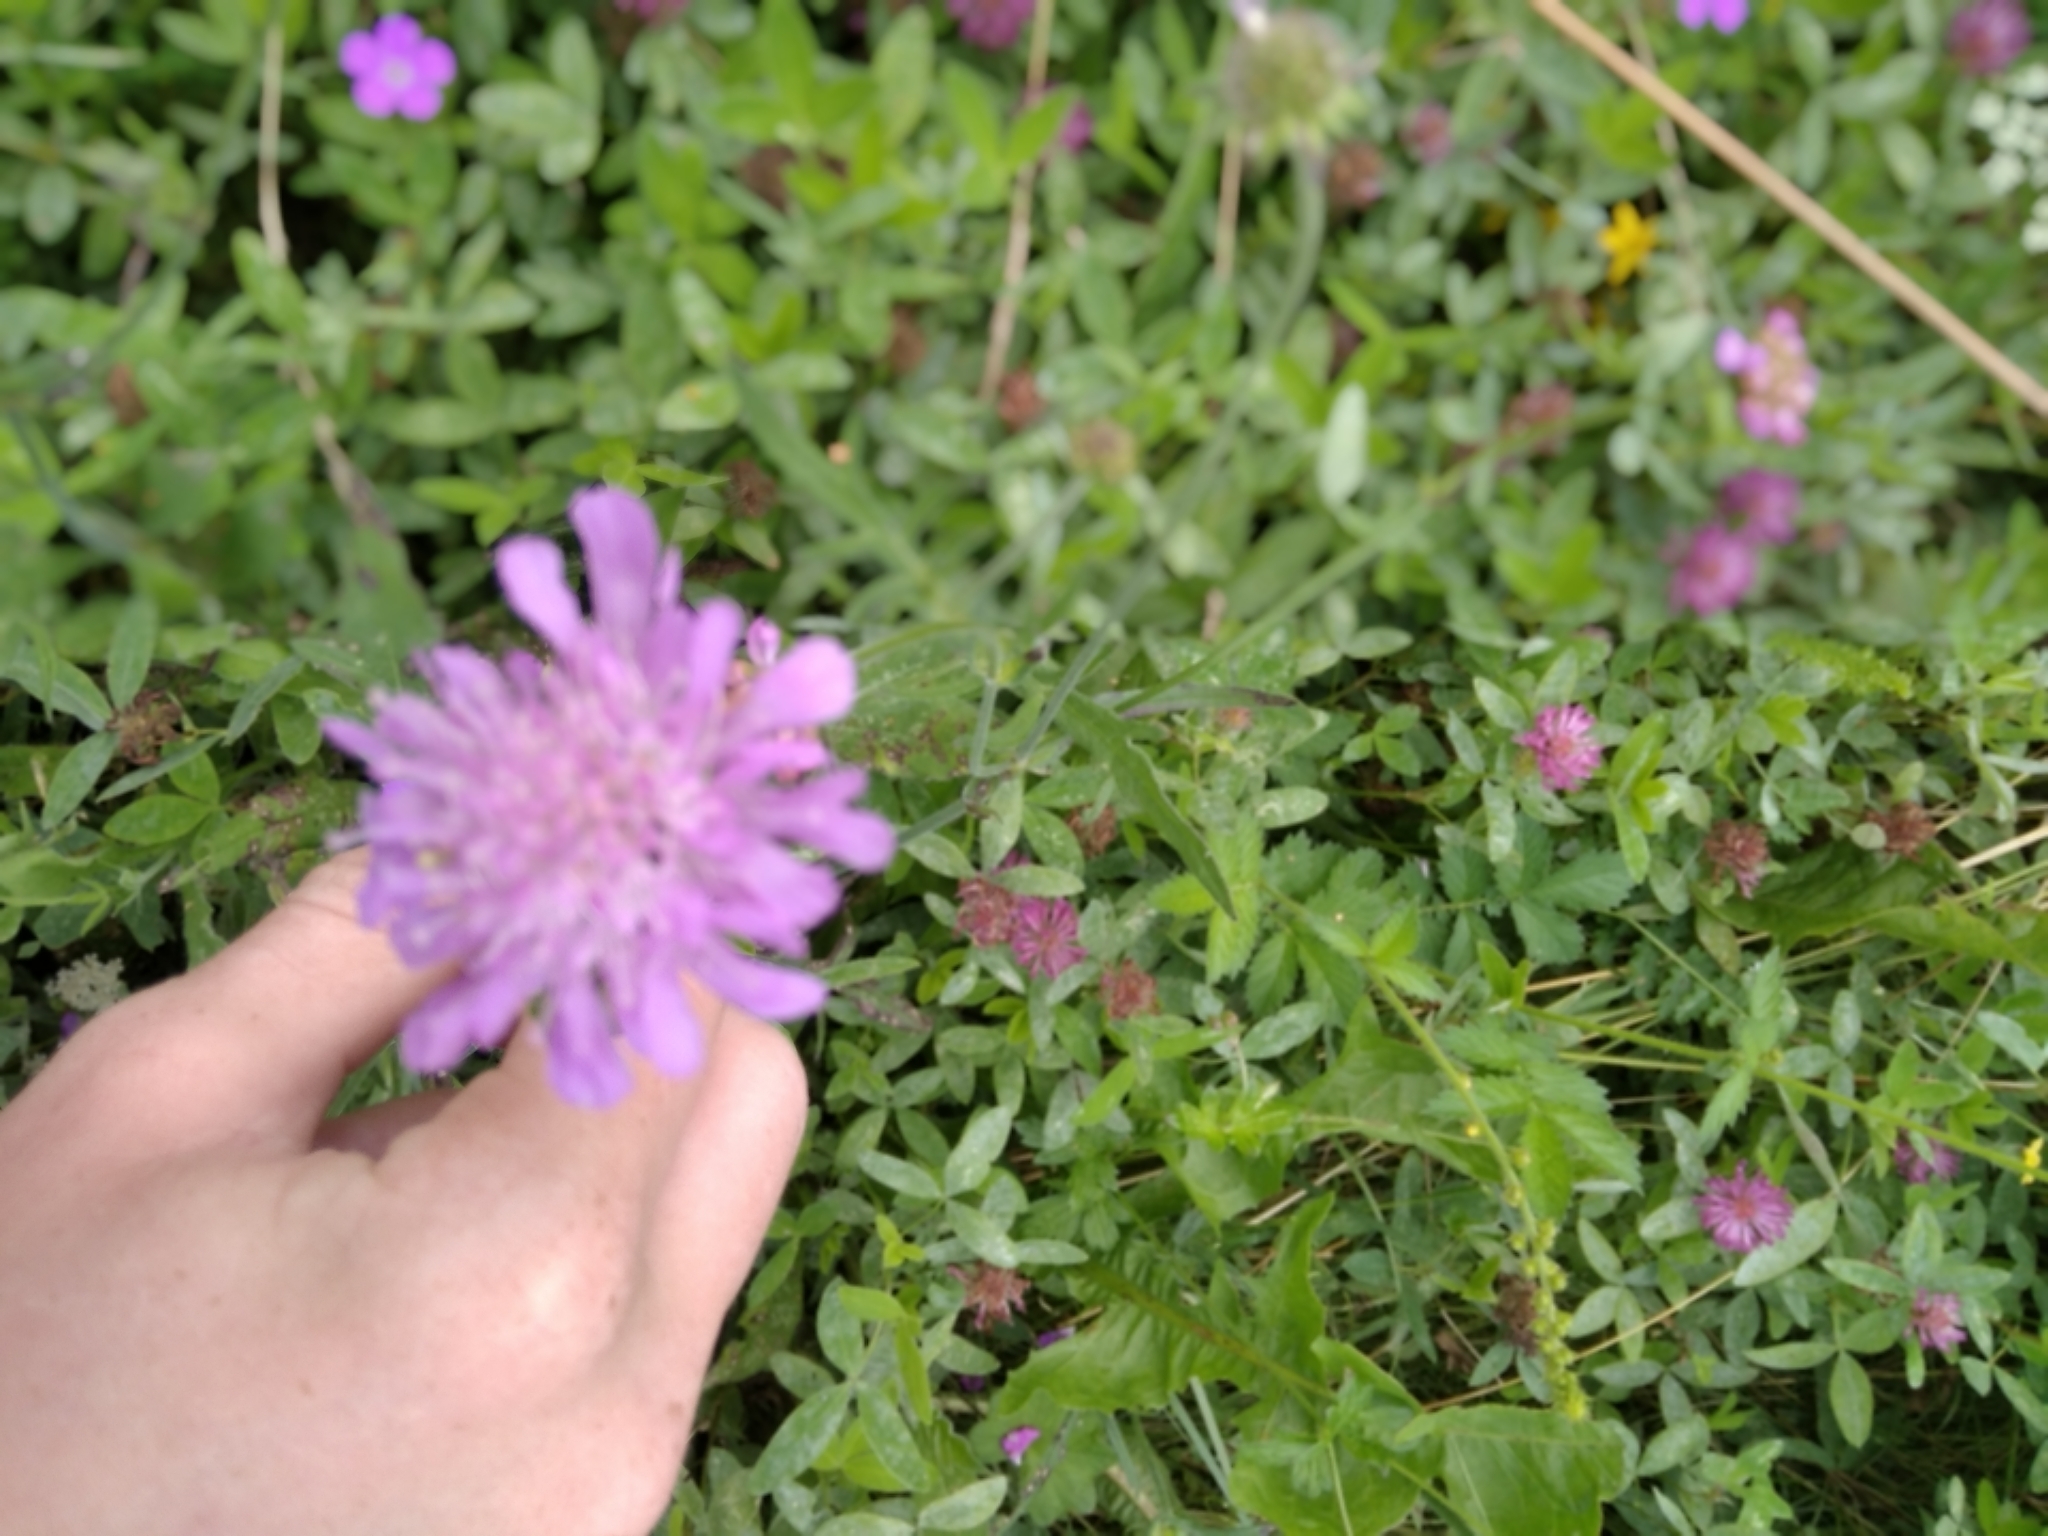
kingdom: Plantae
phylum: Tracheophyta
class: Magnoliopsida
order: Dipsacales
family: Caprifoliaceae
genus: Knautia
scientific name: Knautia arvensis
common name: Field scabiosa
